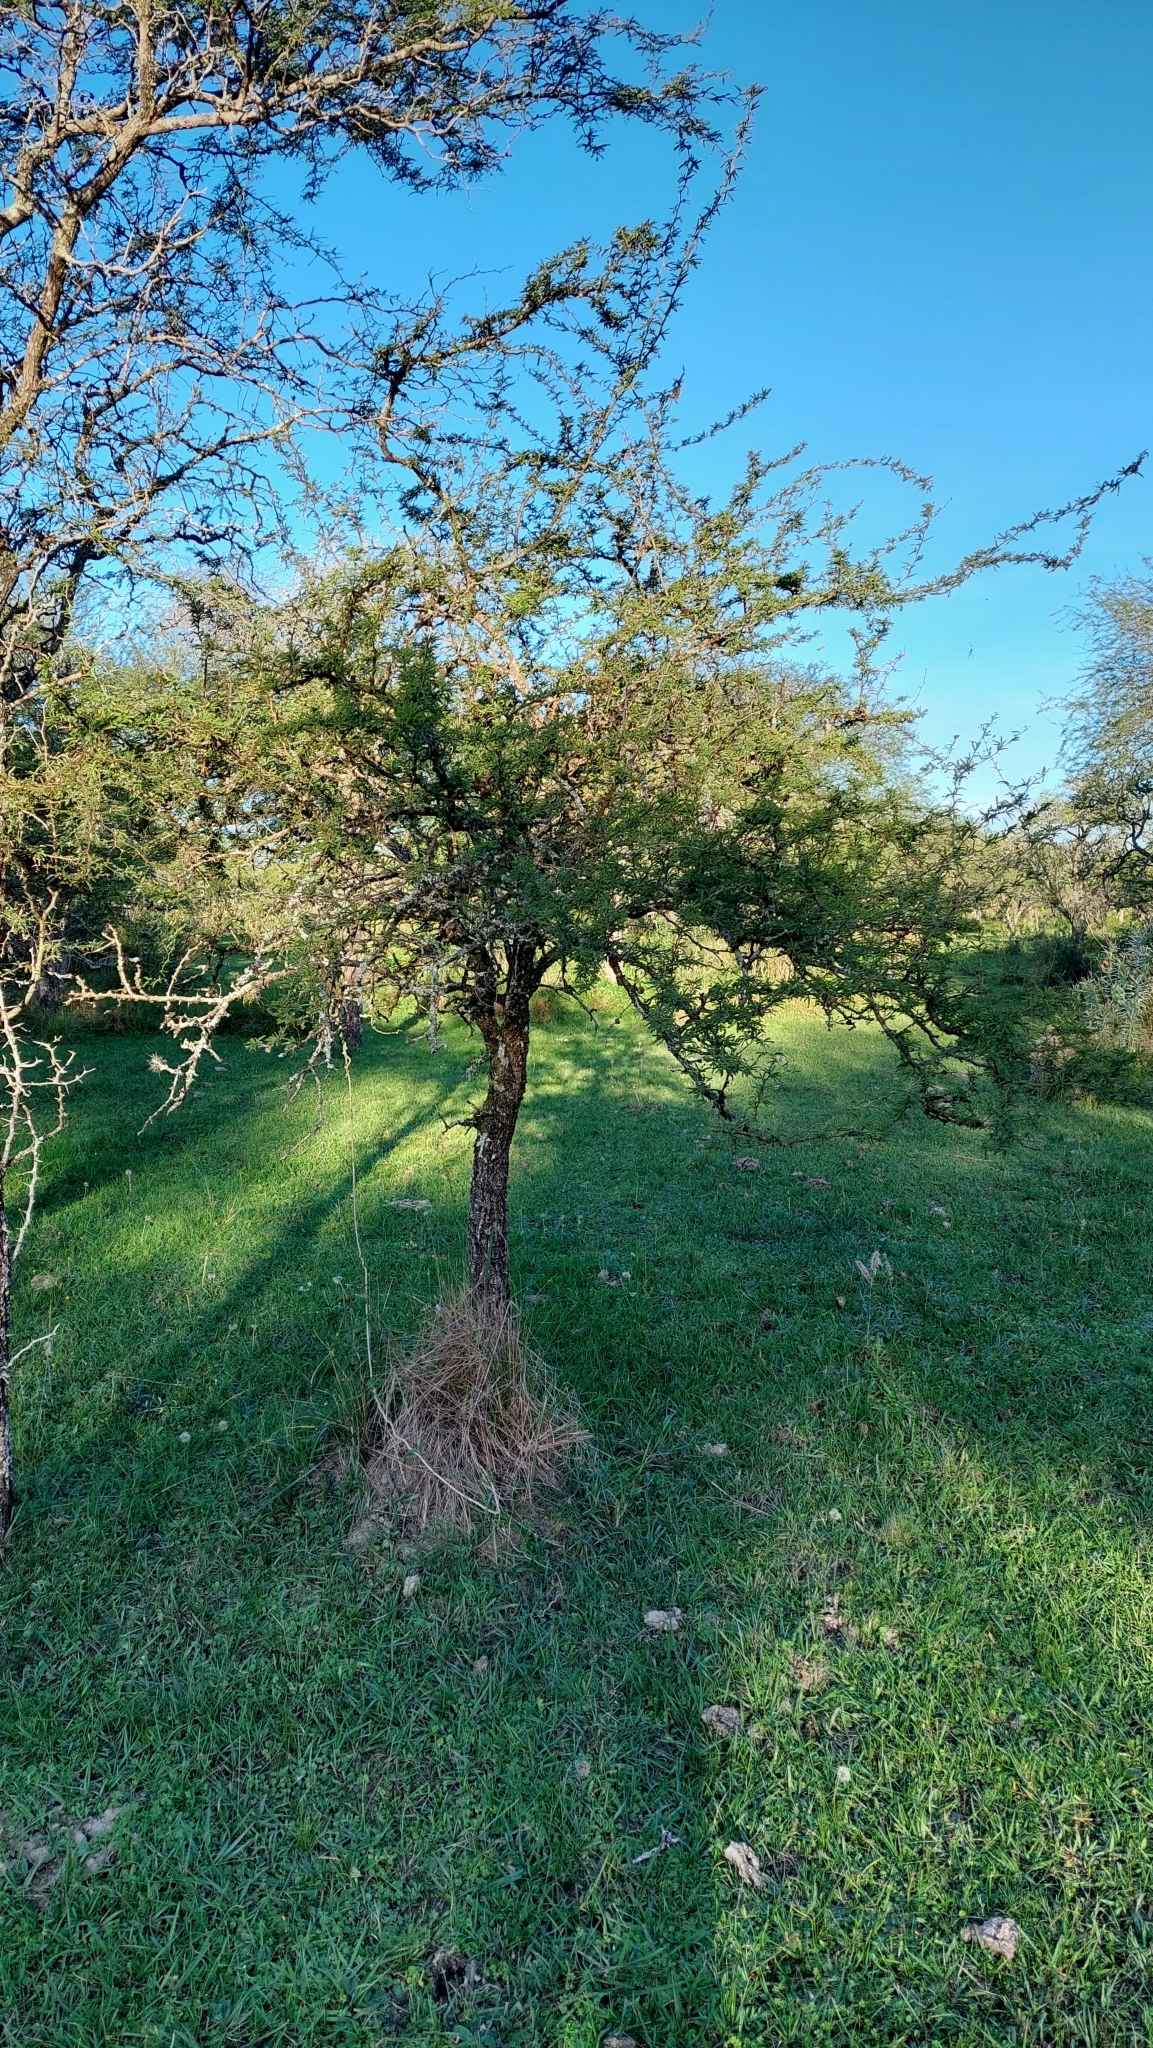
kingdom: Plantae
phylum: Tracheophyta
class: Magnoliopsida
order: Fabales
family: Fabaceae
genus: Prosopis
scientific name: Prosopis affinis
